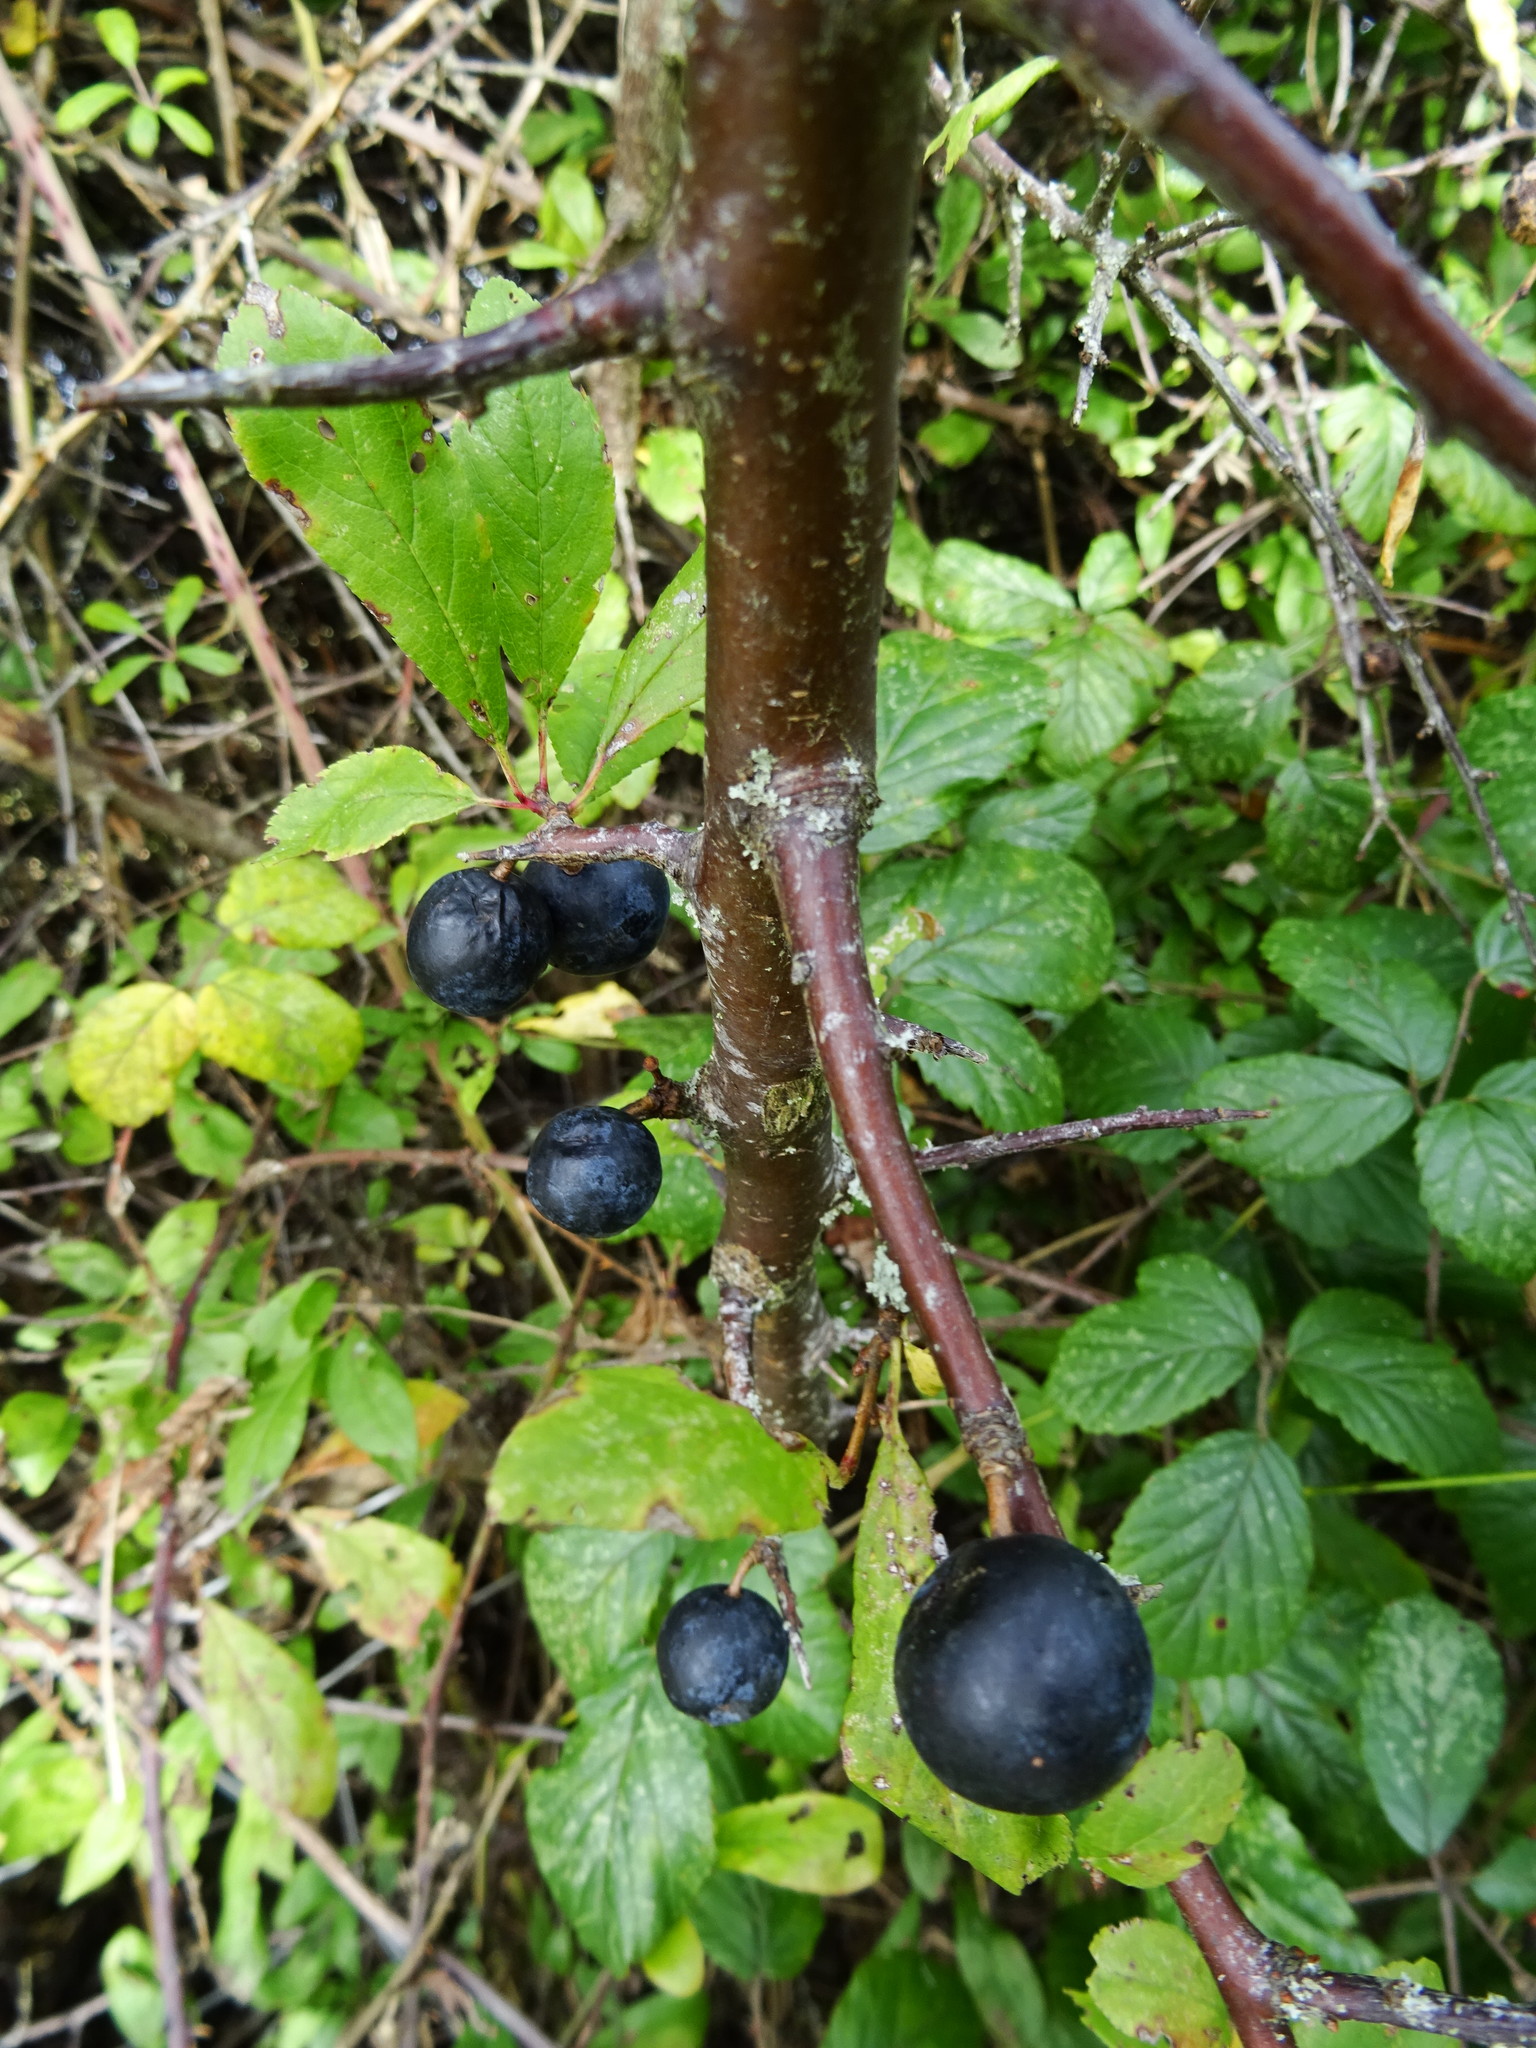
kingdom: Plantae
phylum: Tracheophyta
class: Magnoliopsida
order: Rosales
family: Rosaceae
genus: Prunus
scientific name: Prunus spinosa
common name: Blackthorn
